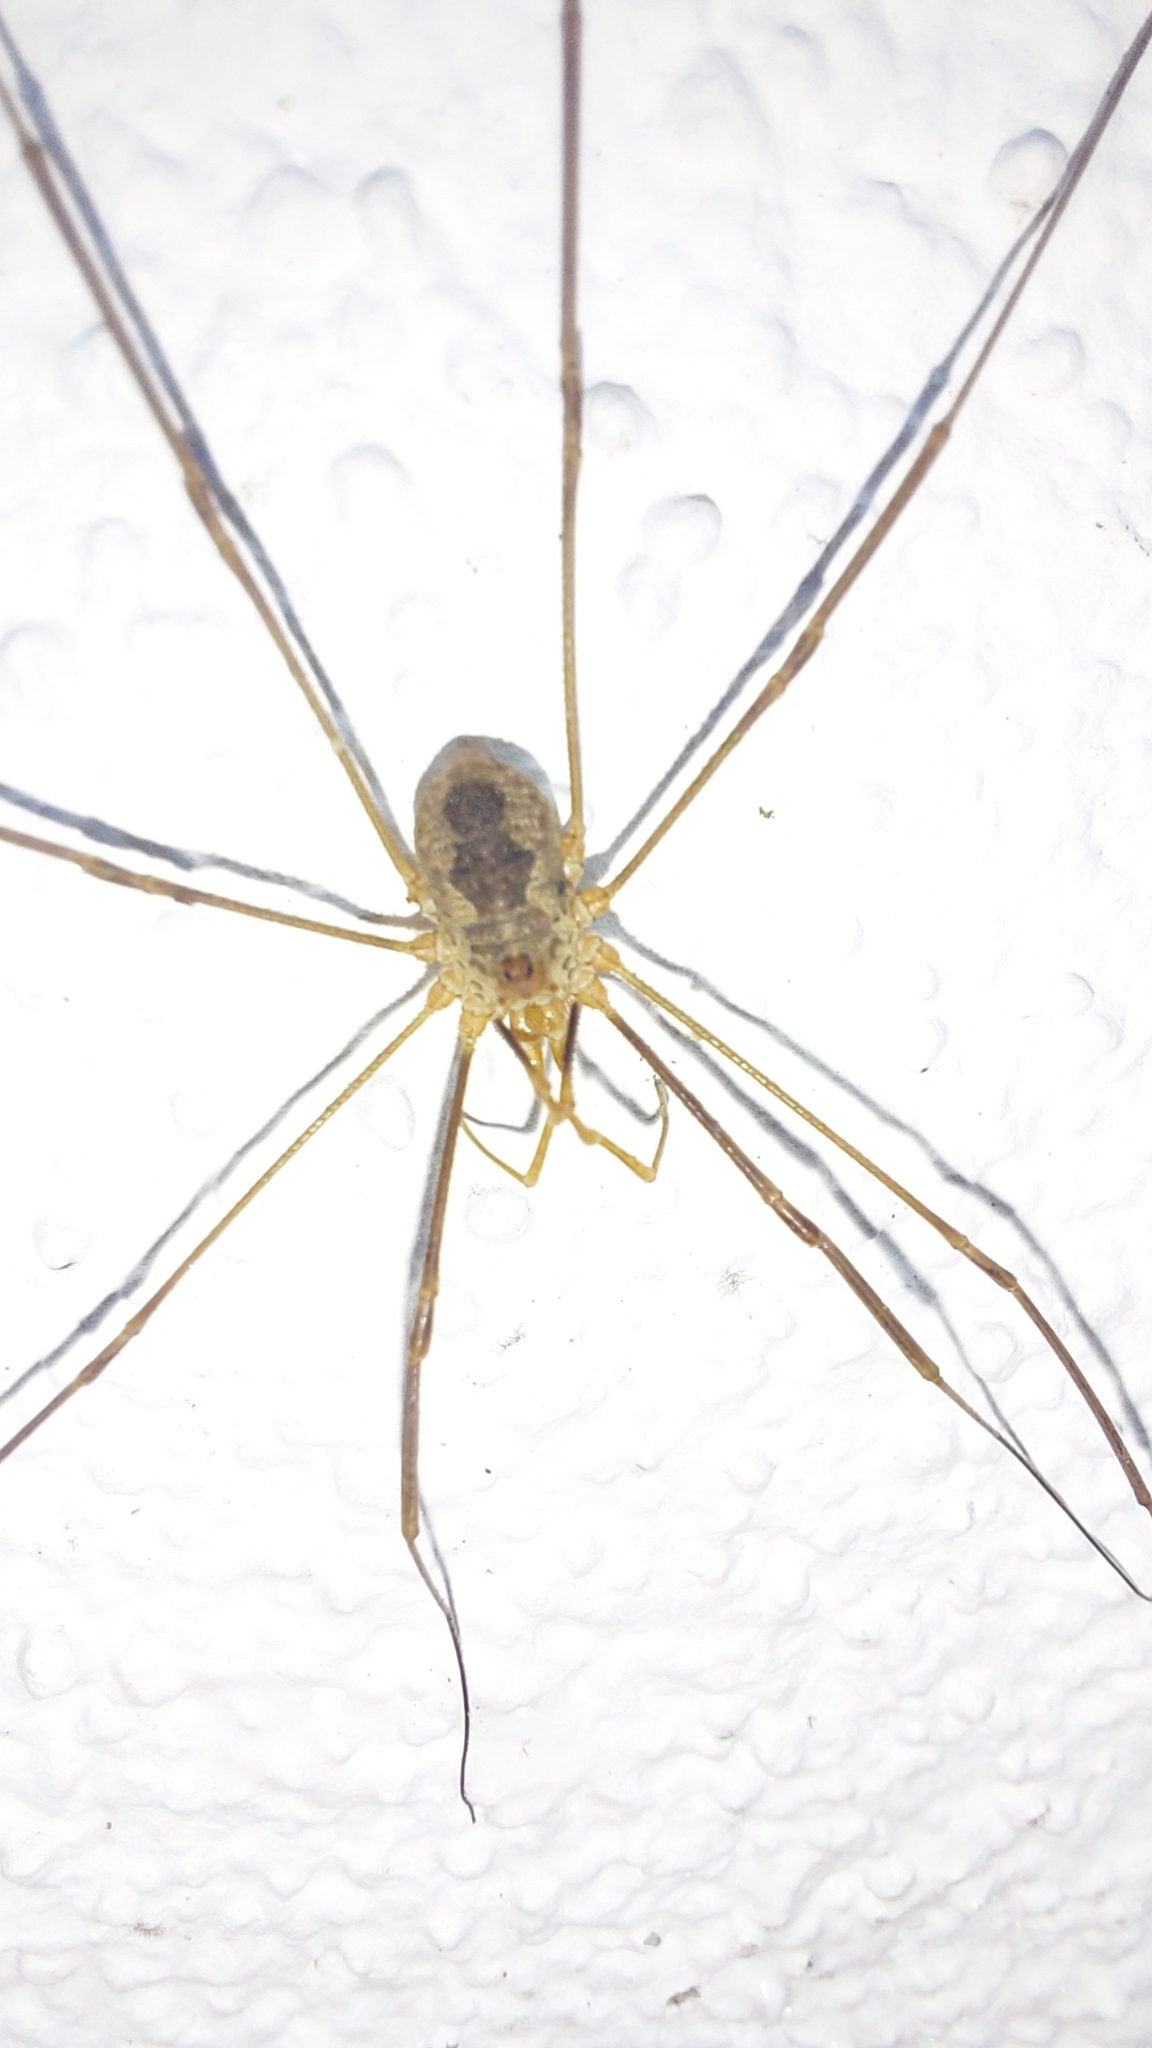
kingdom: Animalia
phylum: Arthropoda
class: Arachnida
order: Opiliones
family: Phalangiidae
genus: Phalangium
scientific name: Phalangium opilio
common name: Daddy longleg
